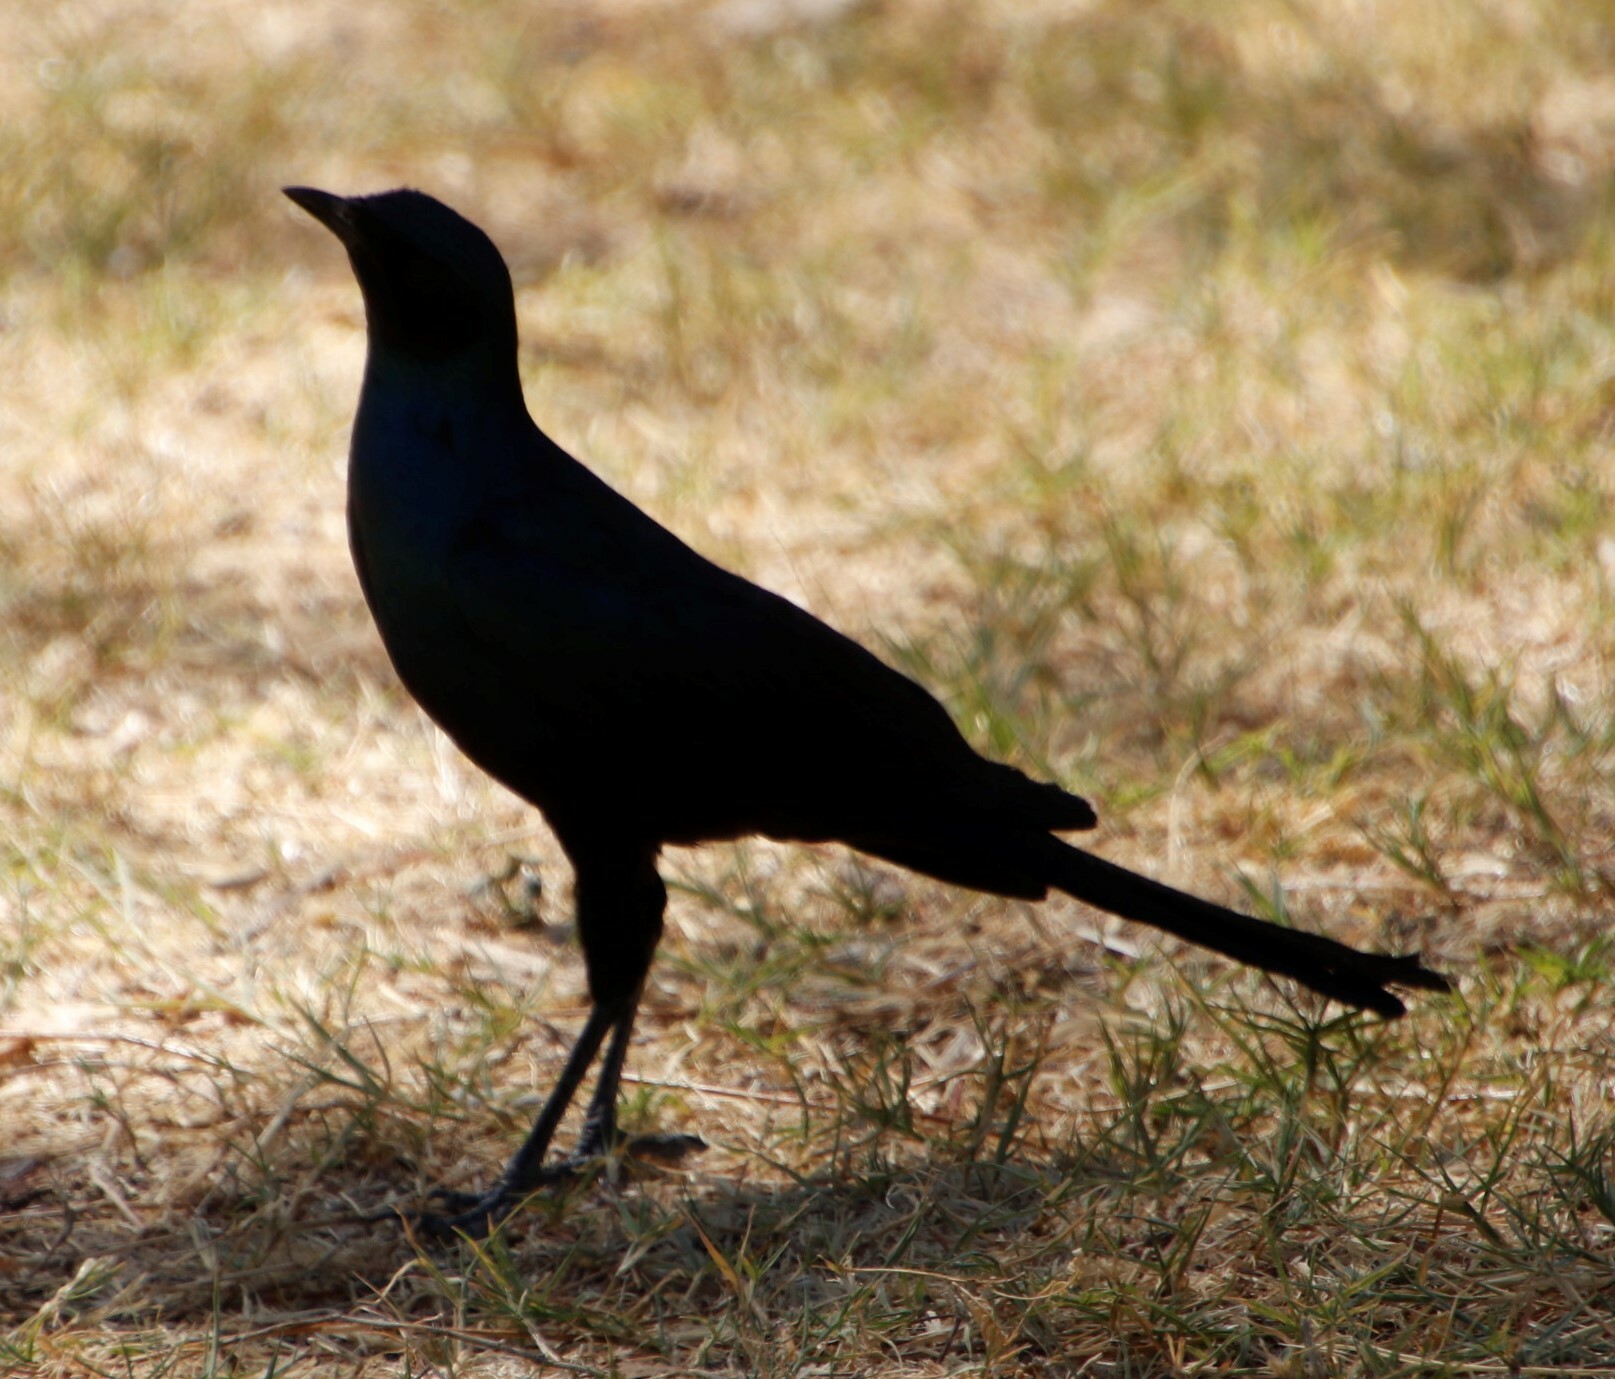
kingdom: Animalia
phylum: Chordata
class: Aves
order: Passeriformes
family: Sturnidae
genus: Lamprotornis
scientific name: Lamprotornis australis
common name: Burchell's starling
